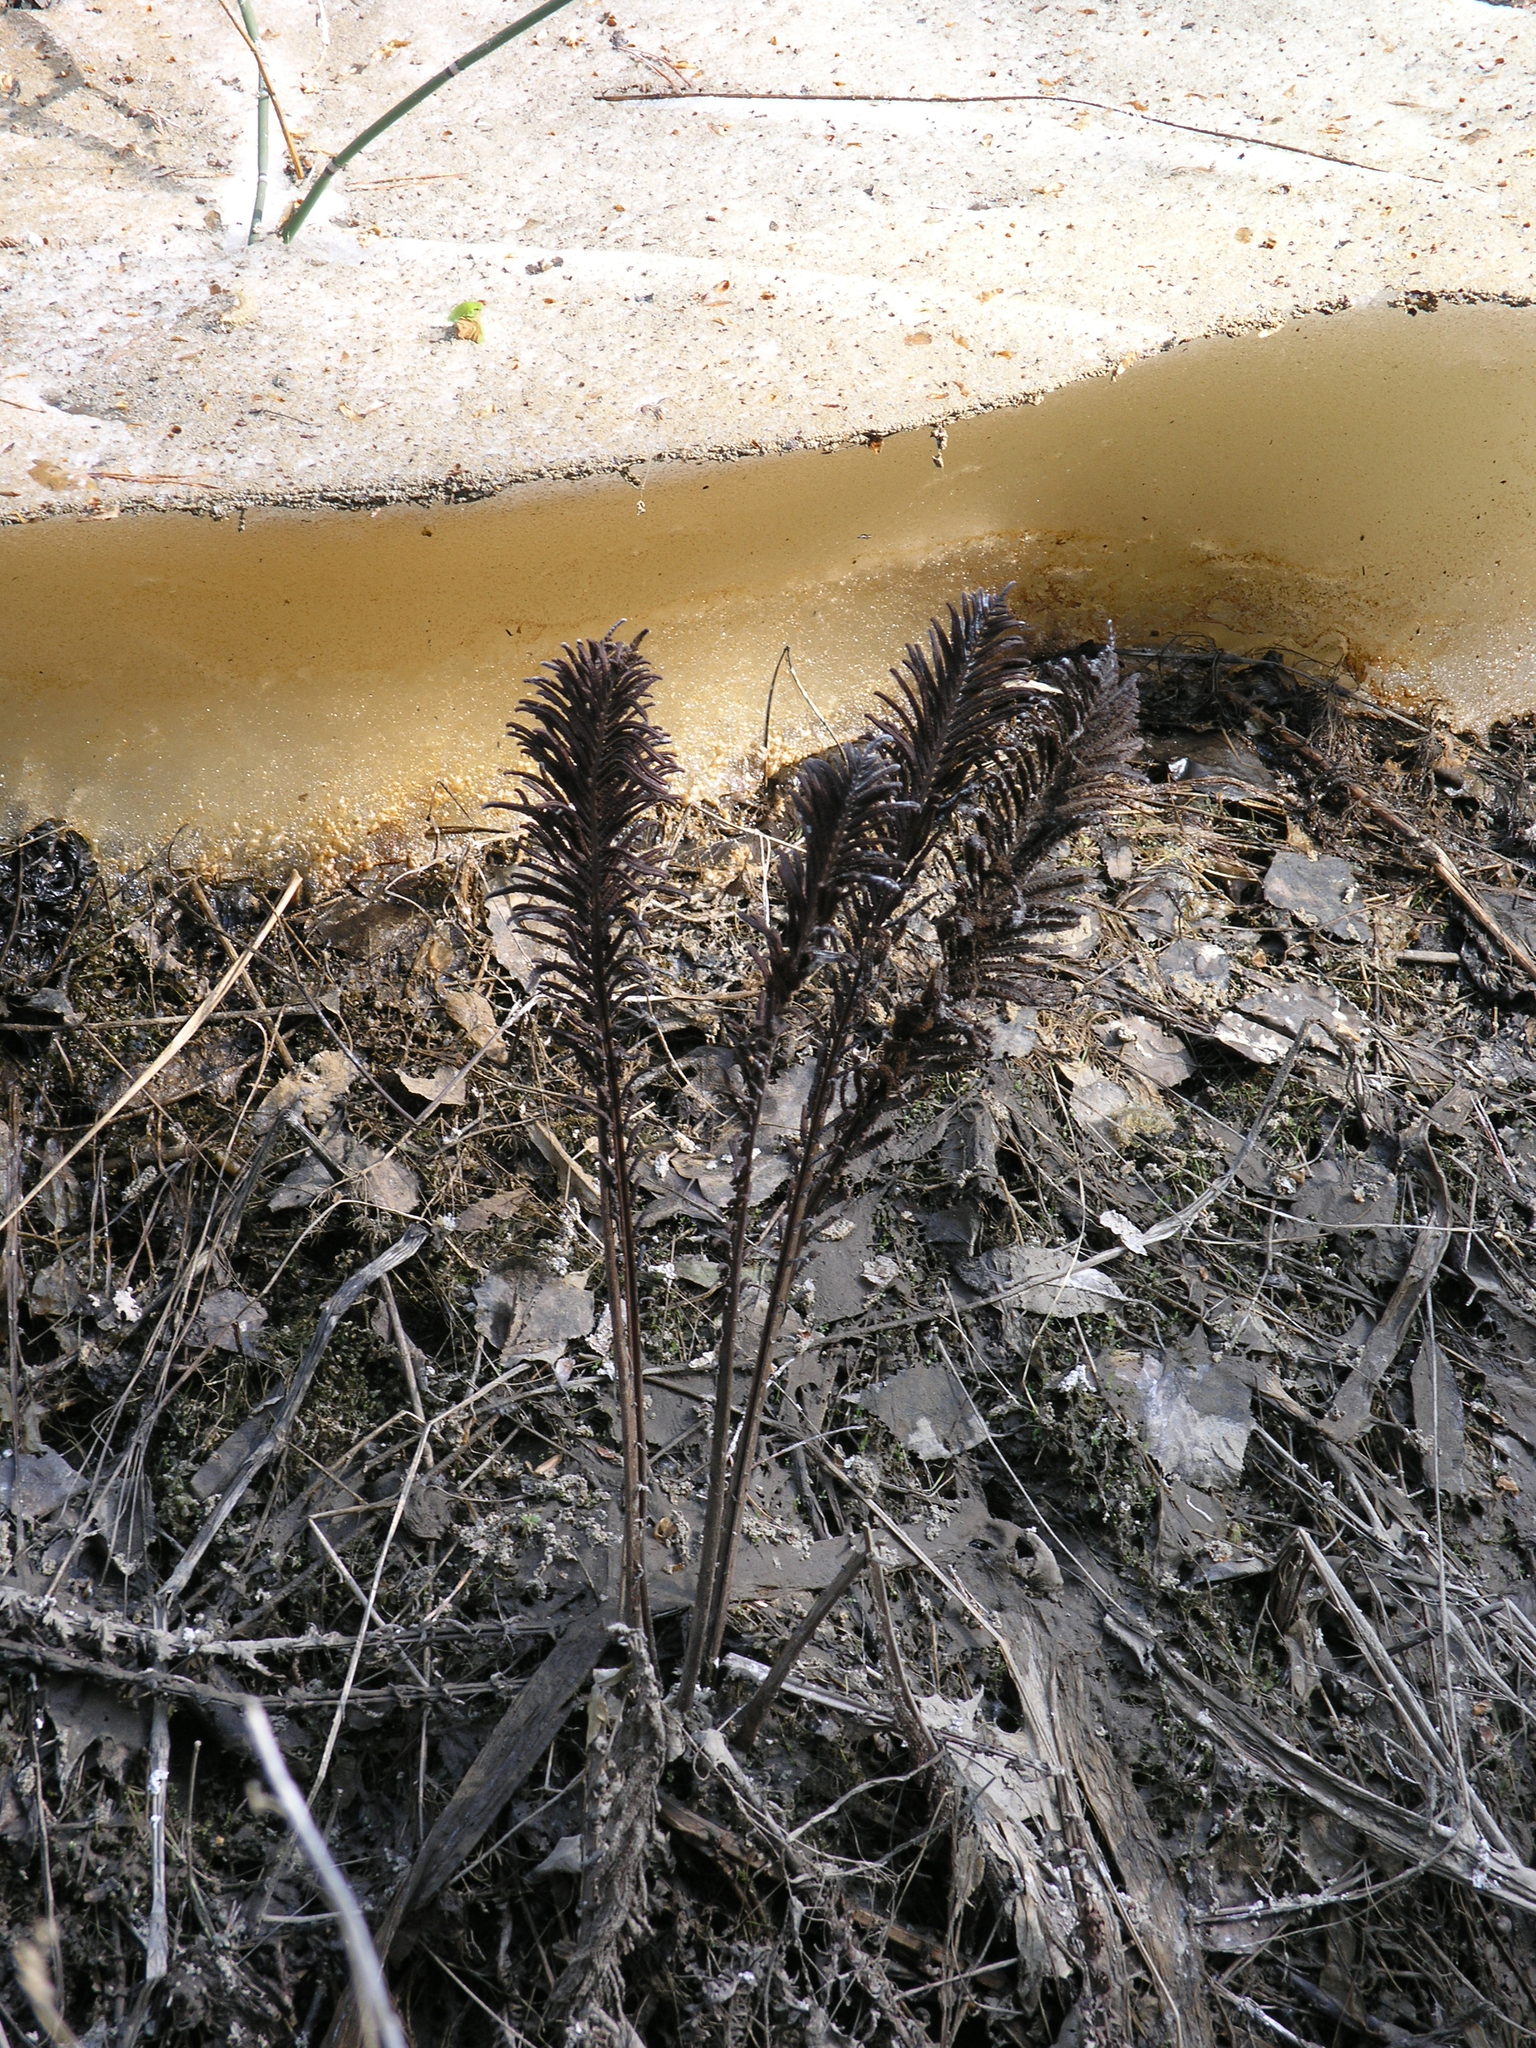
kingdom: Plantae
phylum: Tracheophyta
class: Polypodiopsida
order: Polypodiales
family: Onocleaceae
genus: Matteuccia
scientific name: Matteuccia struthiopteris
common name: Ostrich fern
